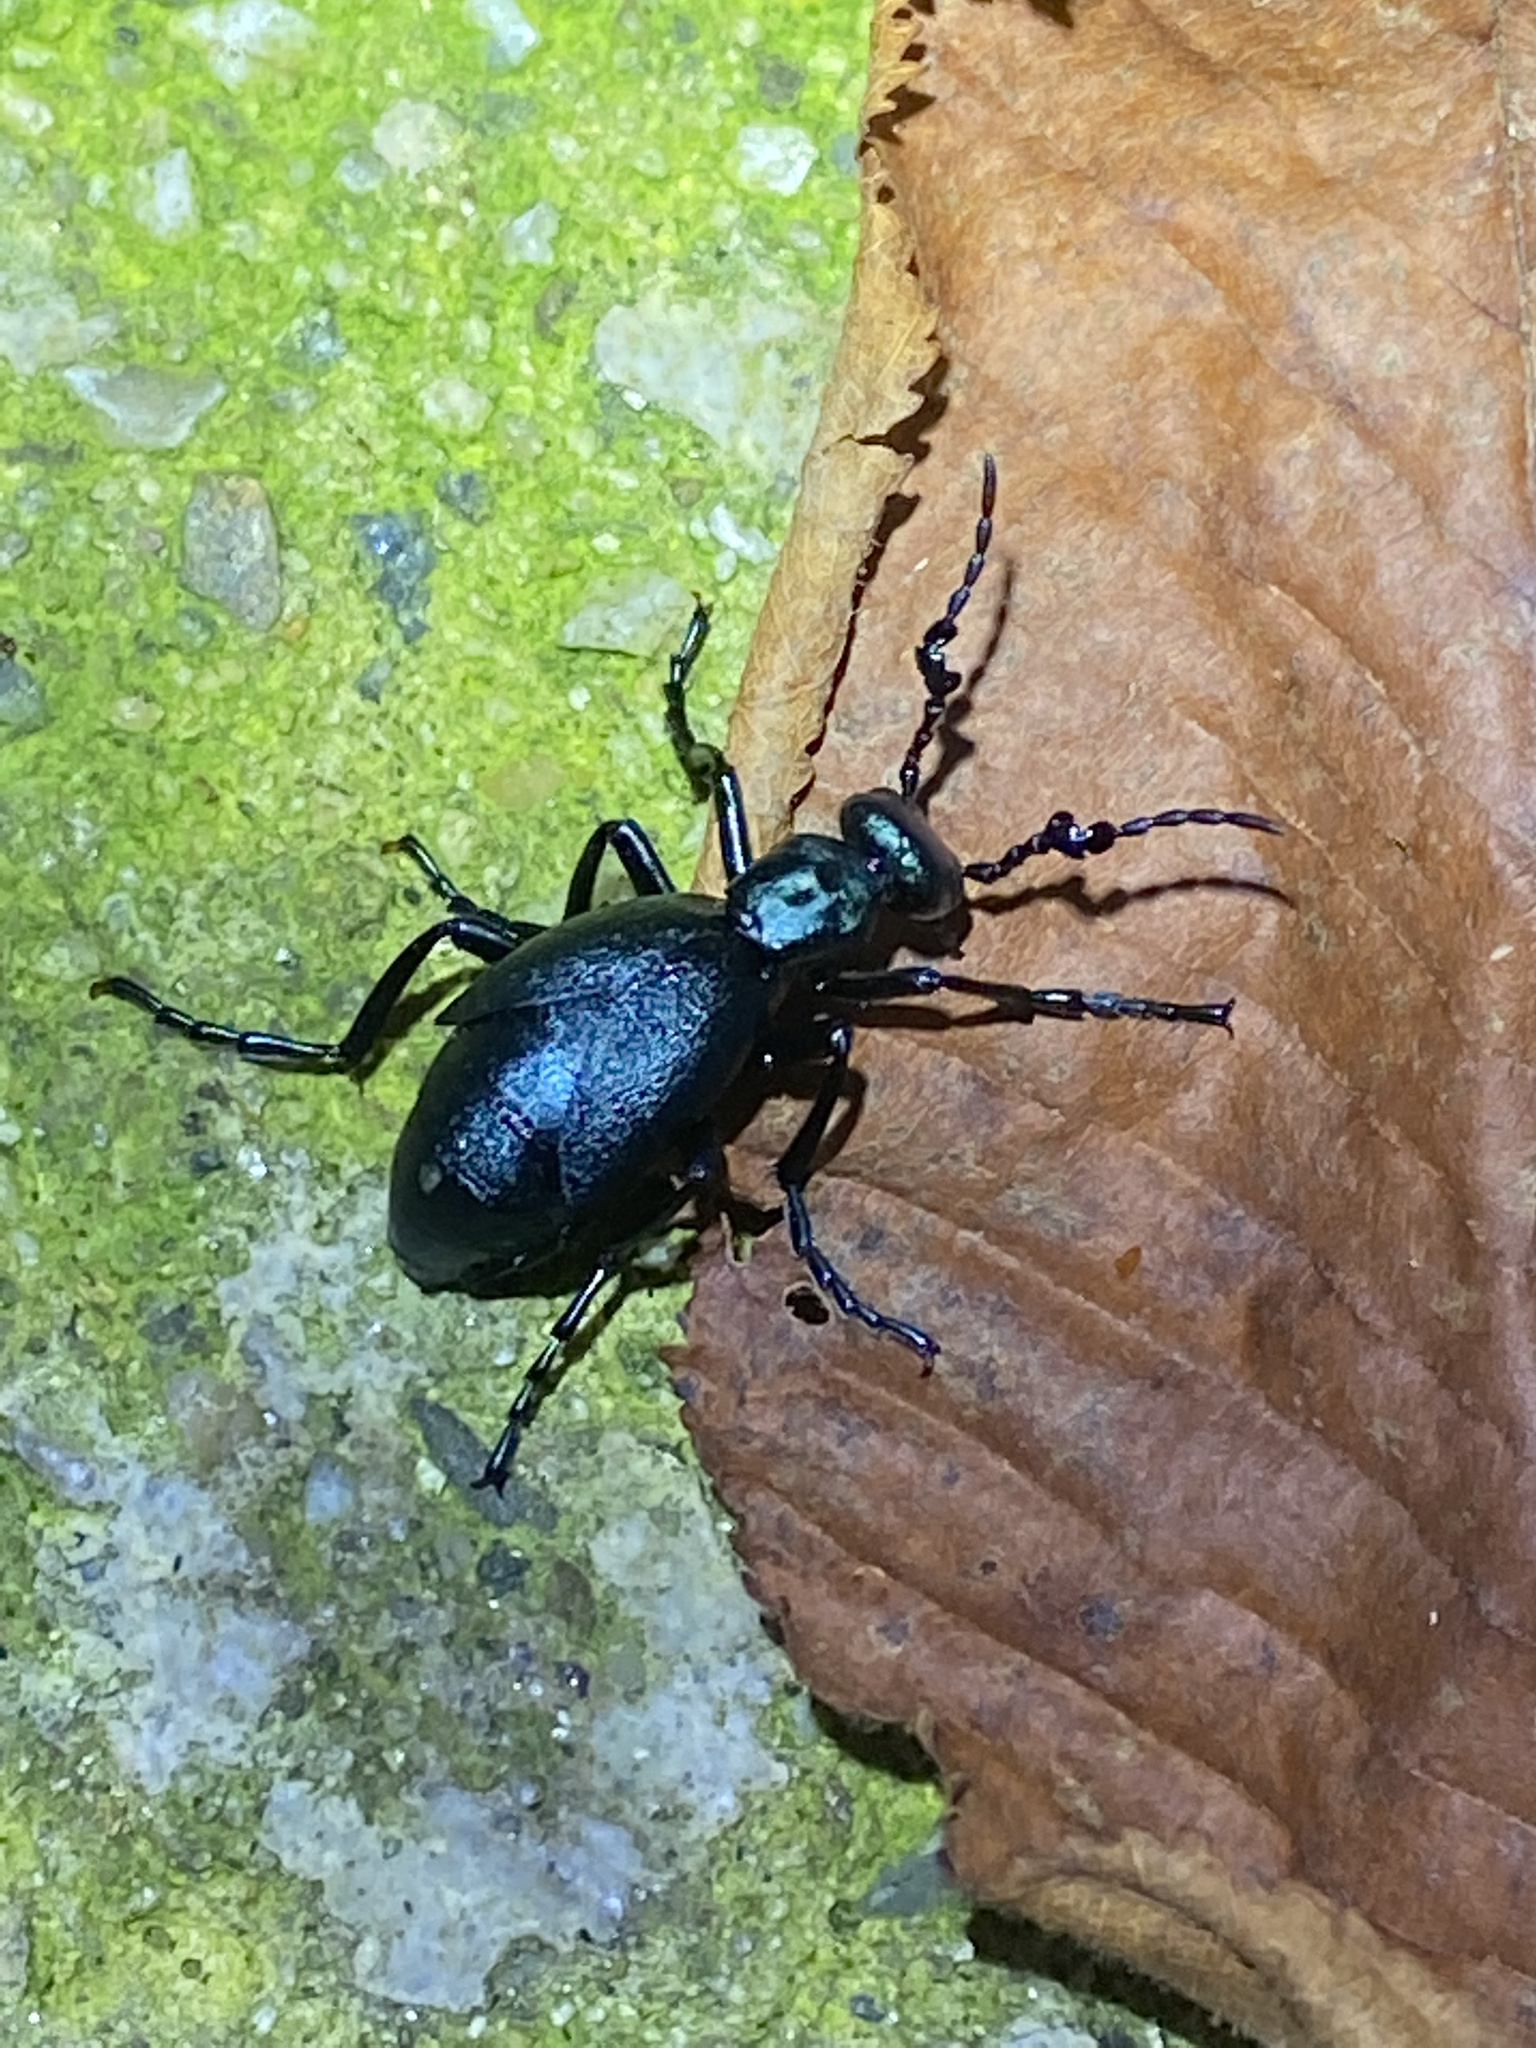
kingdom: Animalia
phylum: Arthropoda
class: Insecta
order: Coleoptera
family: Meloidae
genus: Meloe
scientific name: Meloe impressus
